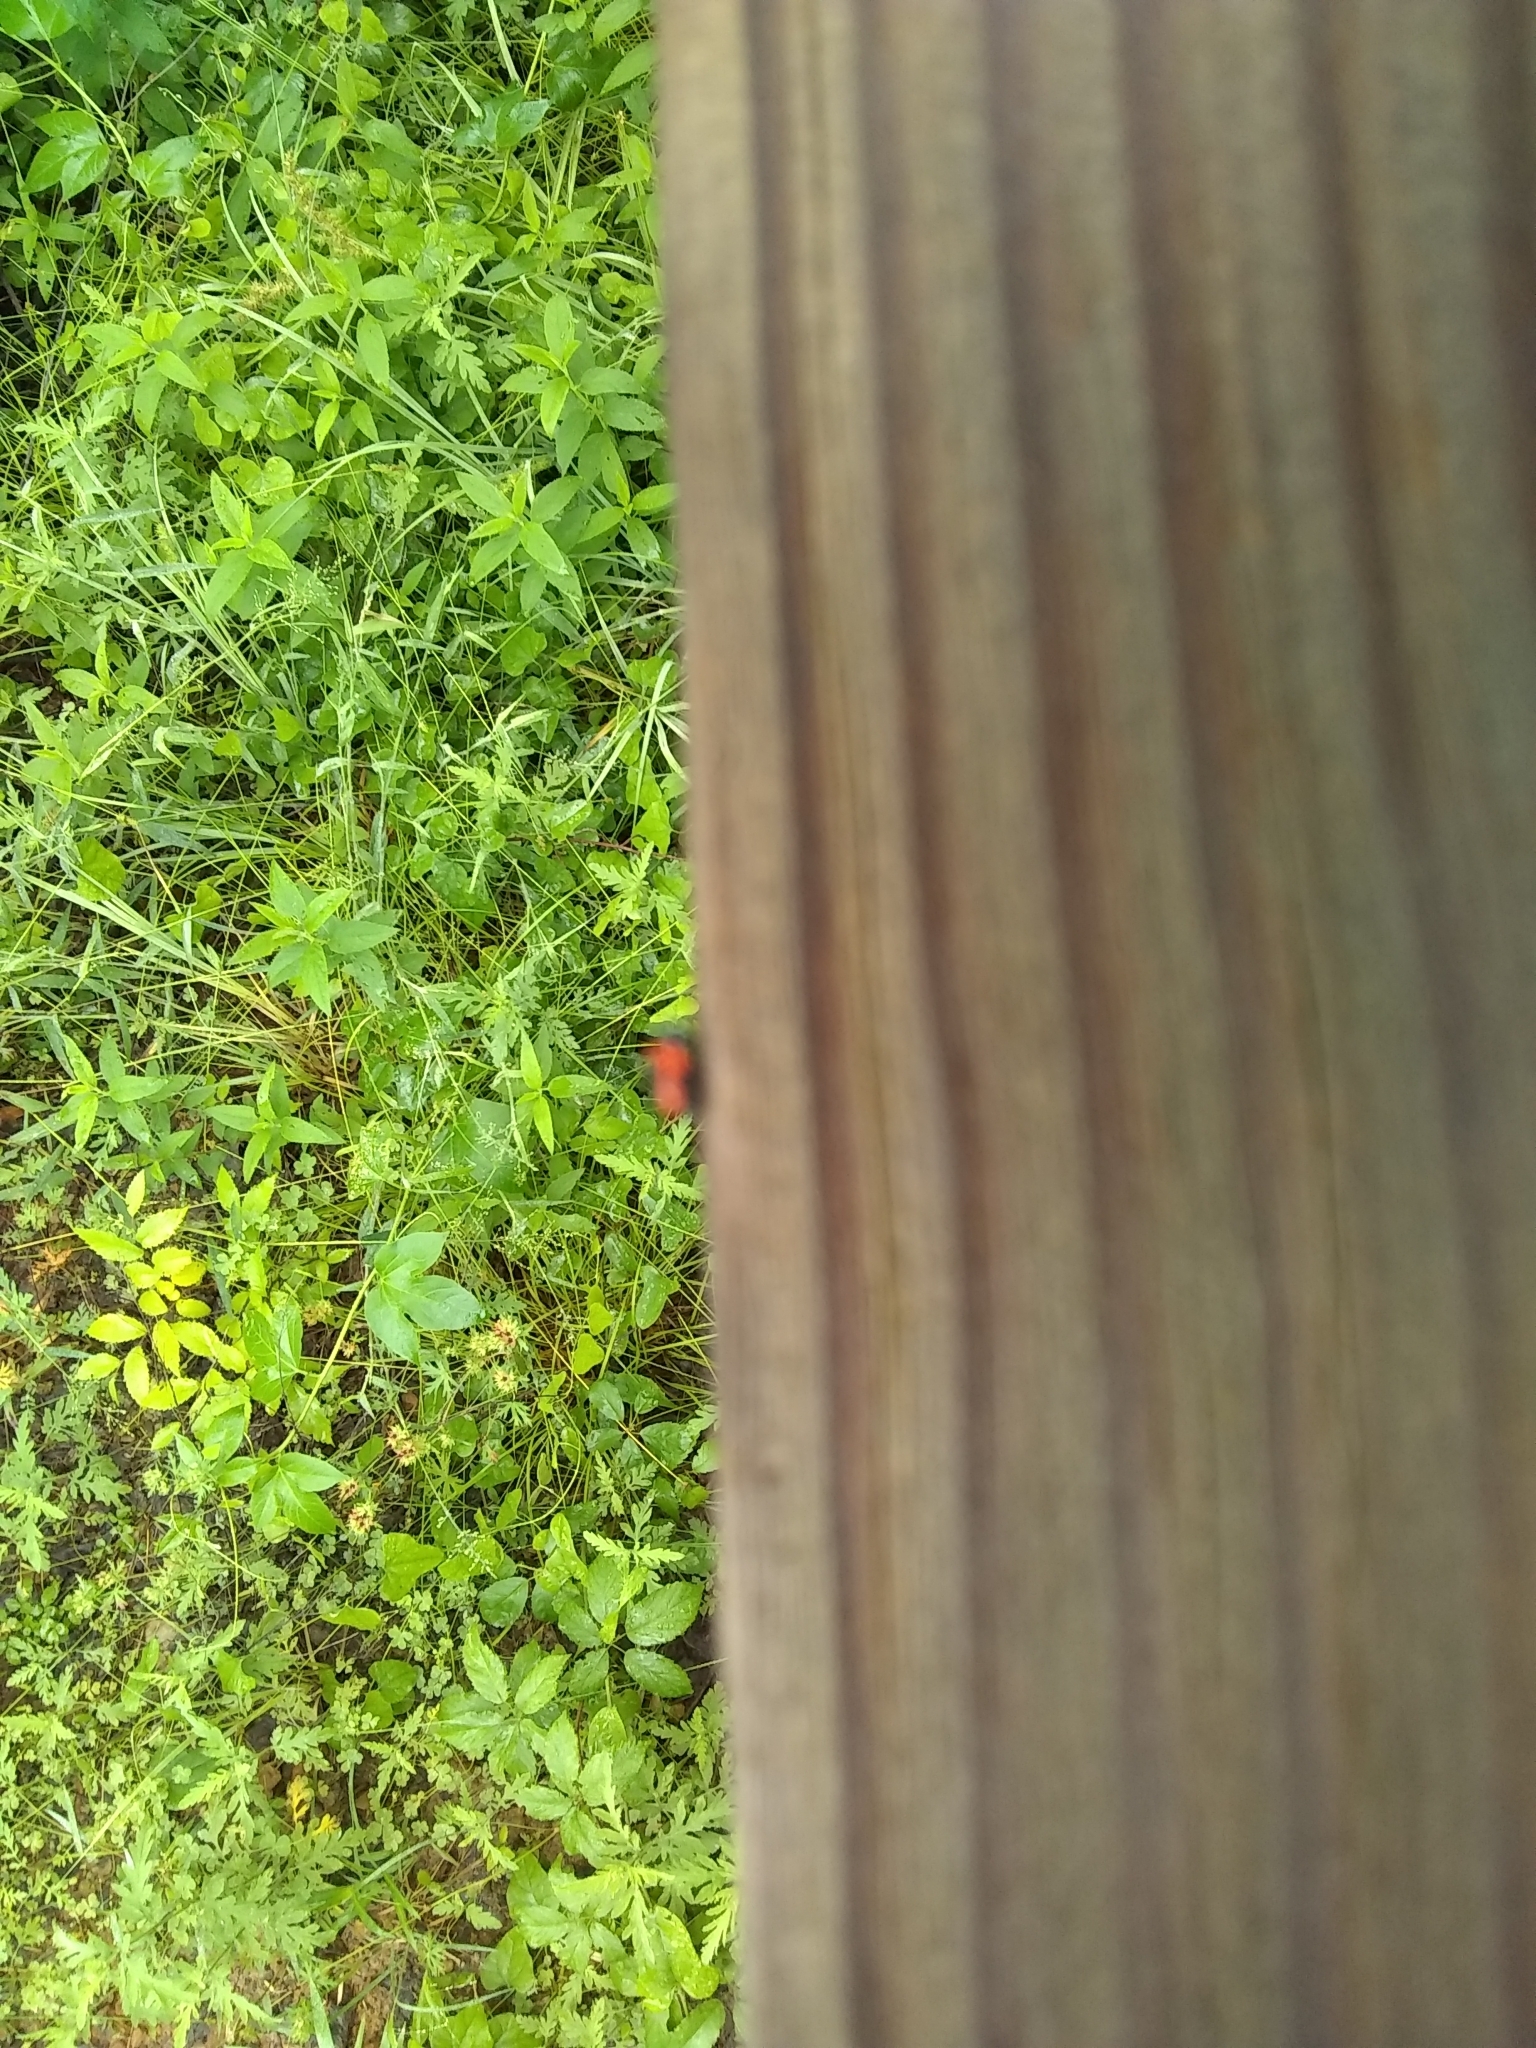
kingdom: Animalia
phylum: Arthropoda
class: Insecta
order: Coleoptera
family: Chrysomelidae
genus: Cryptocephalus
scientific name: Cryptocephalus notatus
